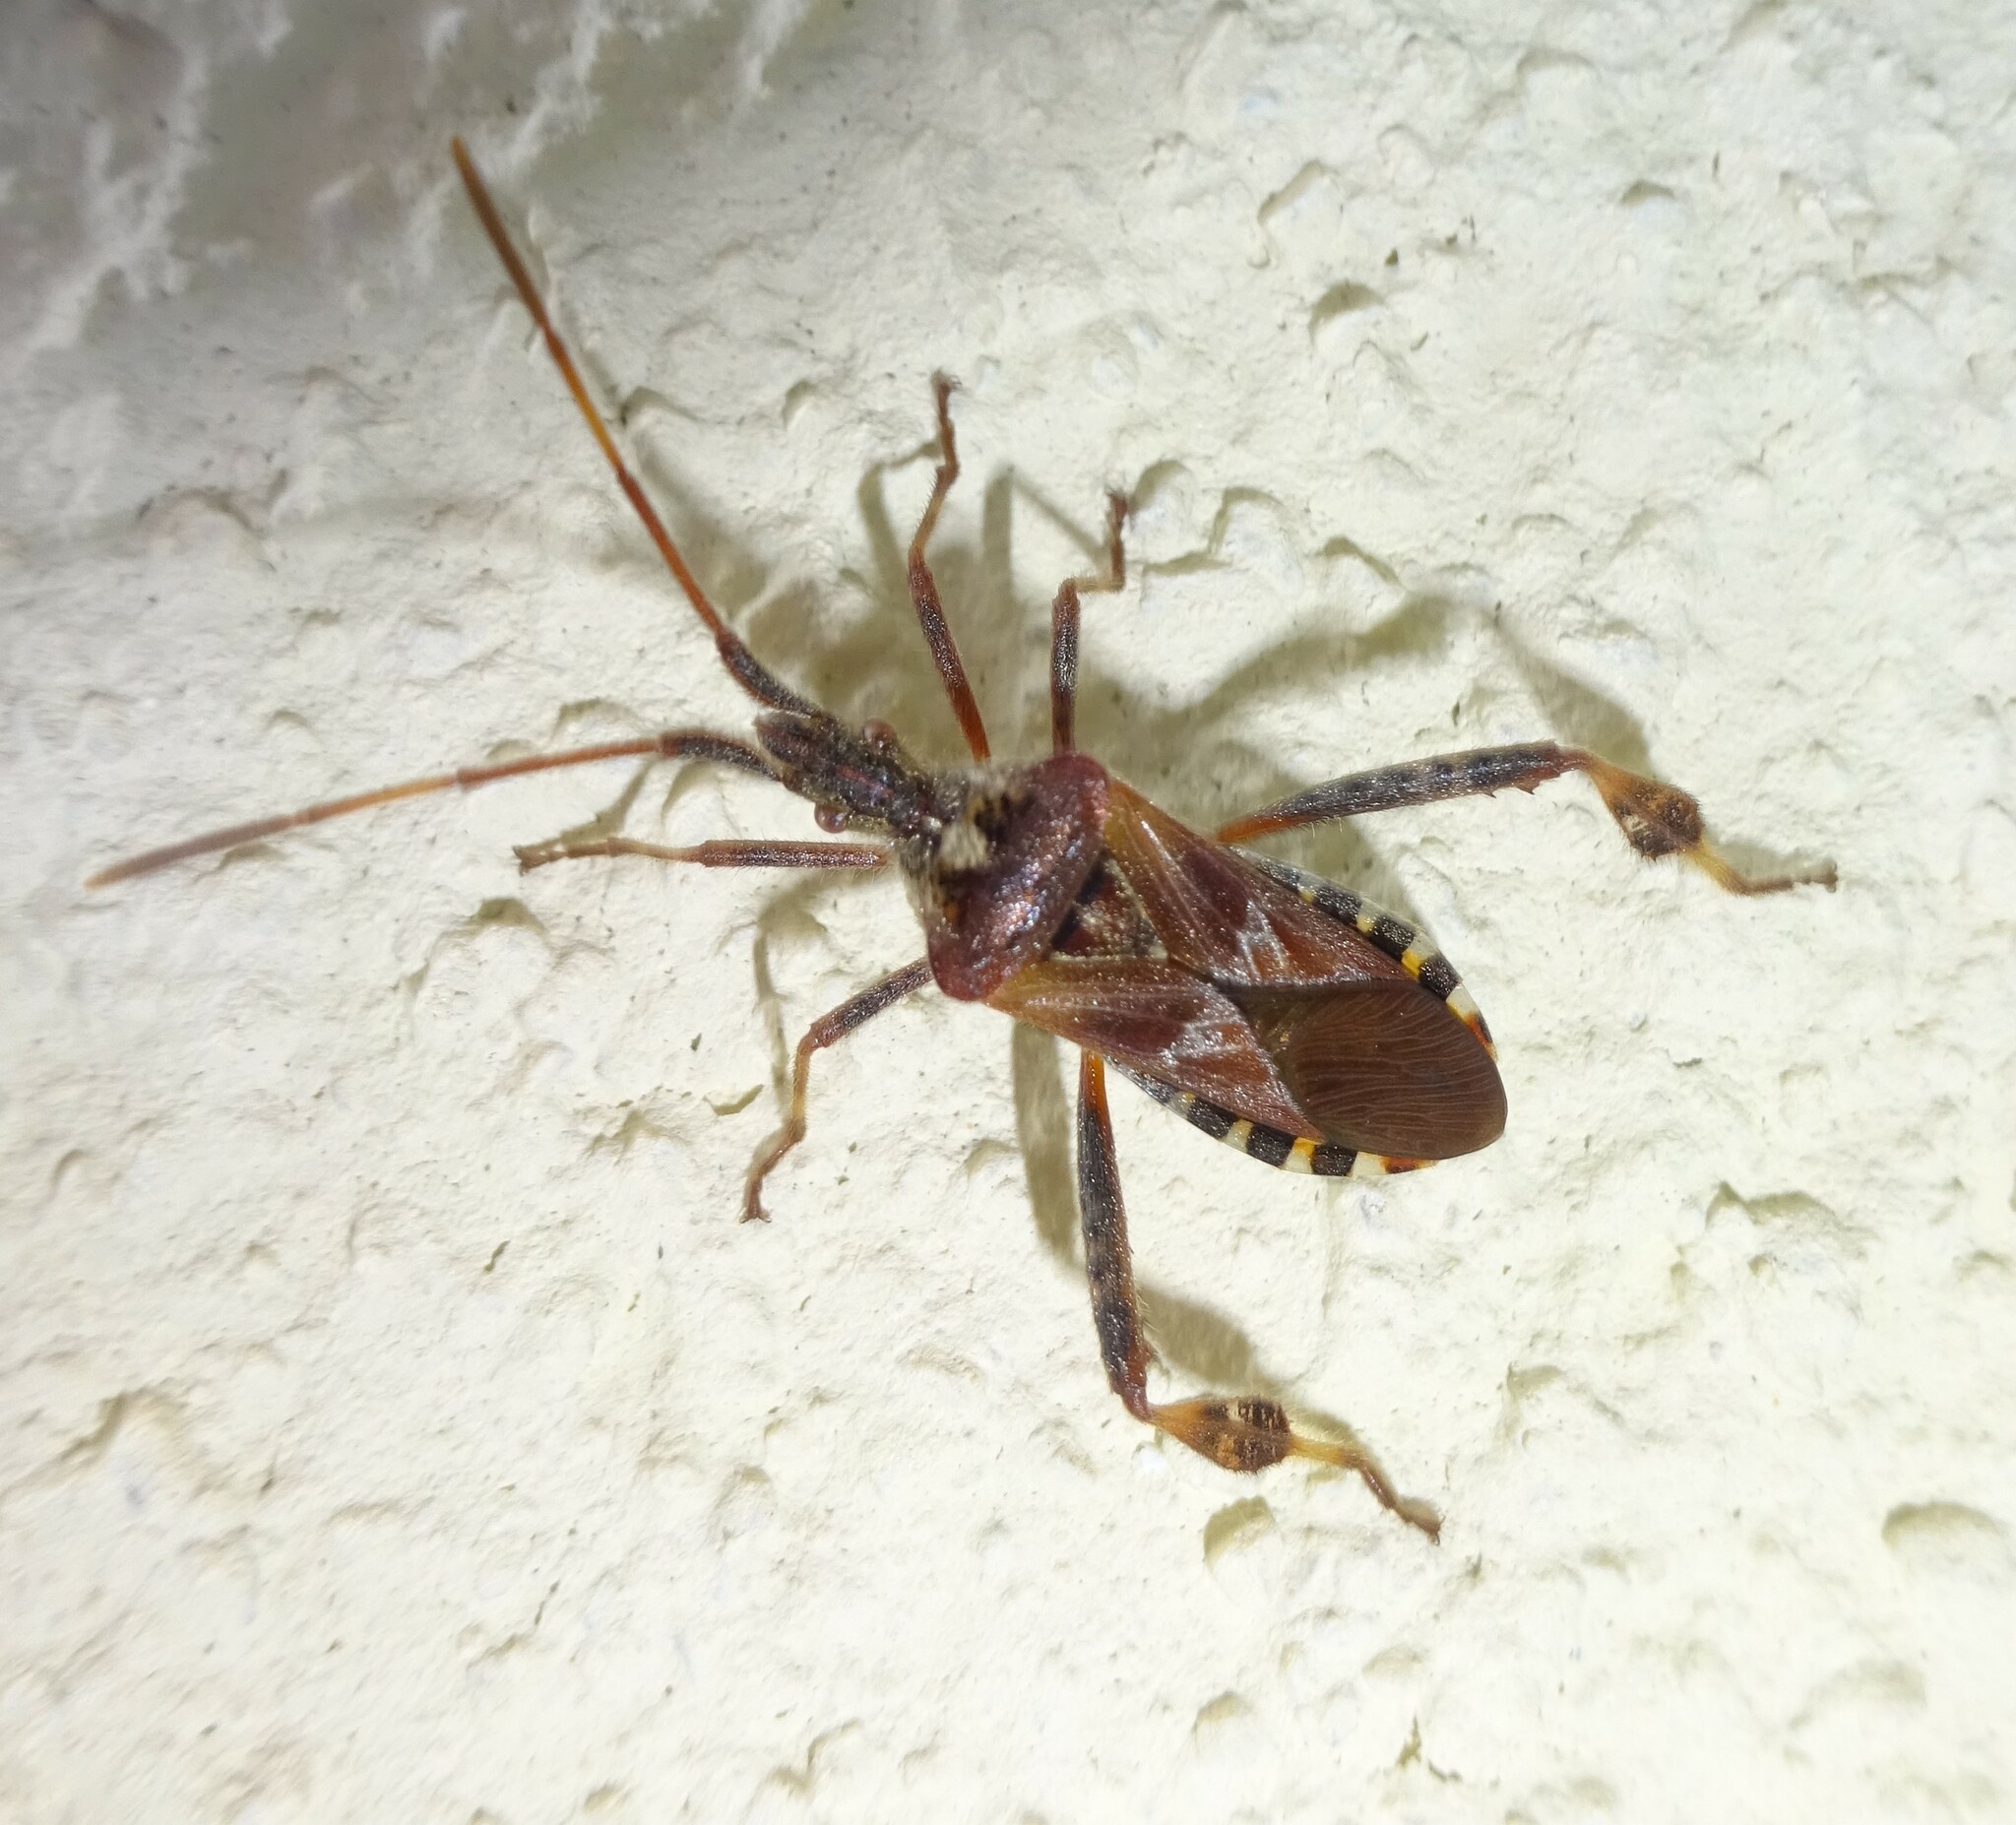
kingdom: Animalia
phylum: Arthropoda
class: Insecta
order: Hemiptera
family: Coreidae
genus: Leptoglossus
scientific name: Leptoglossus occidentalis
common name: Western conifer-seed bug
